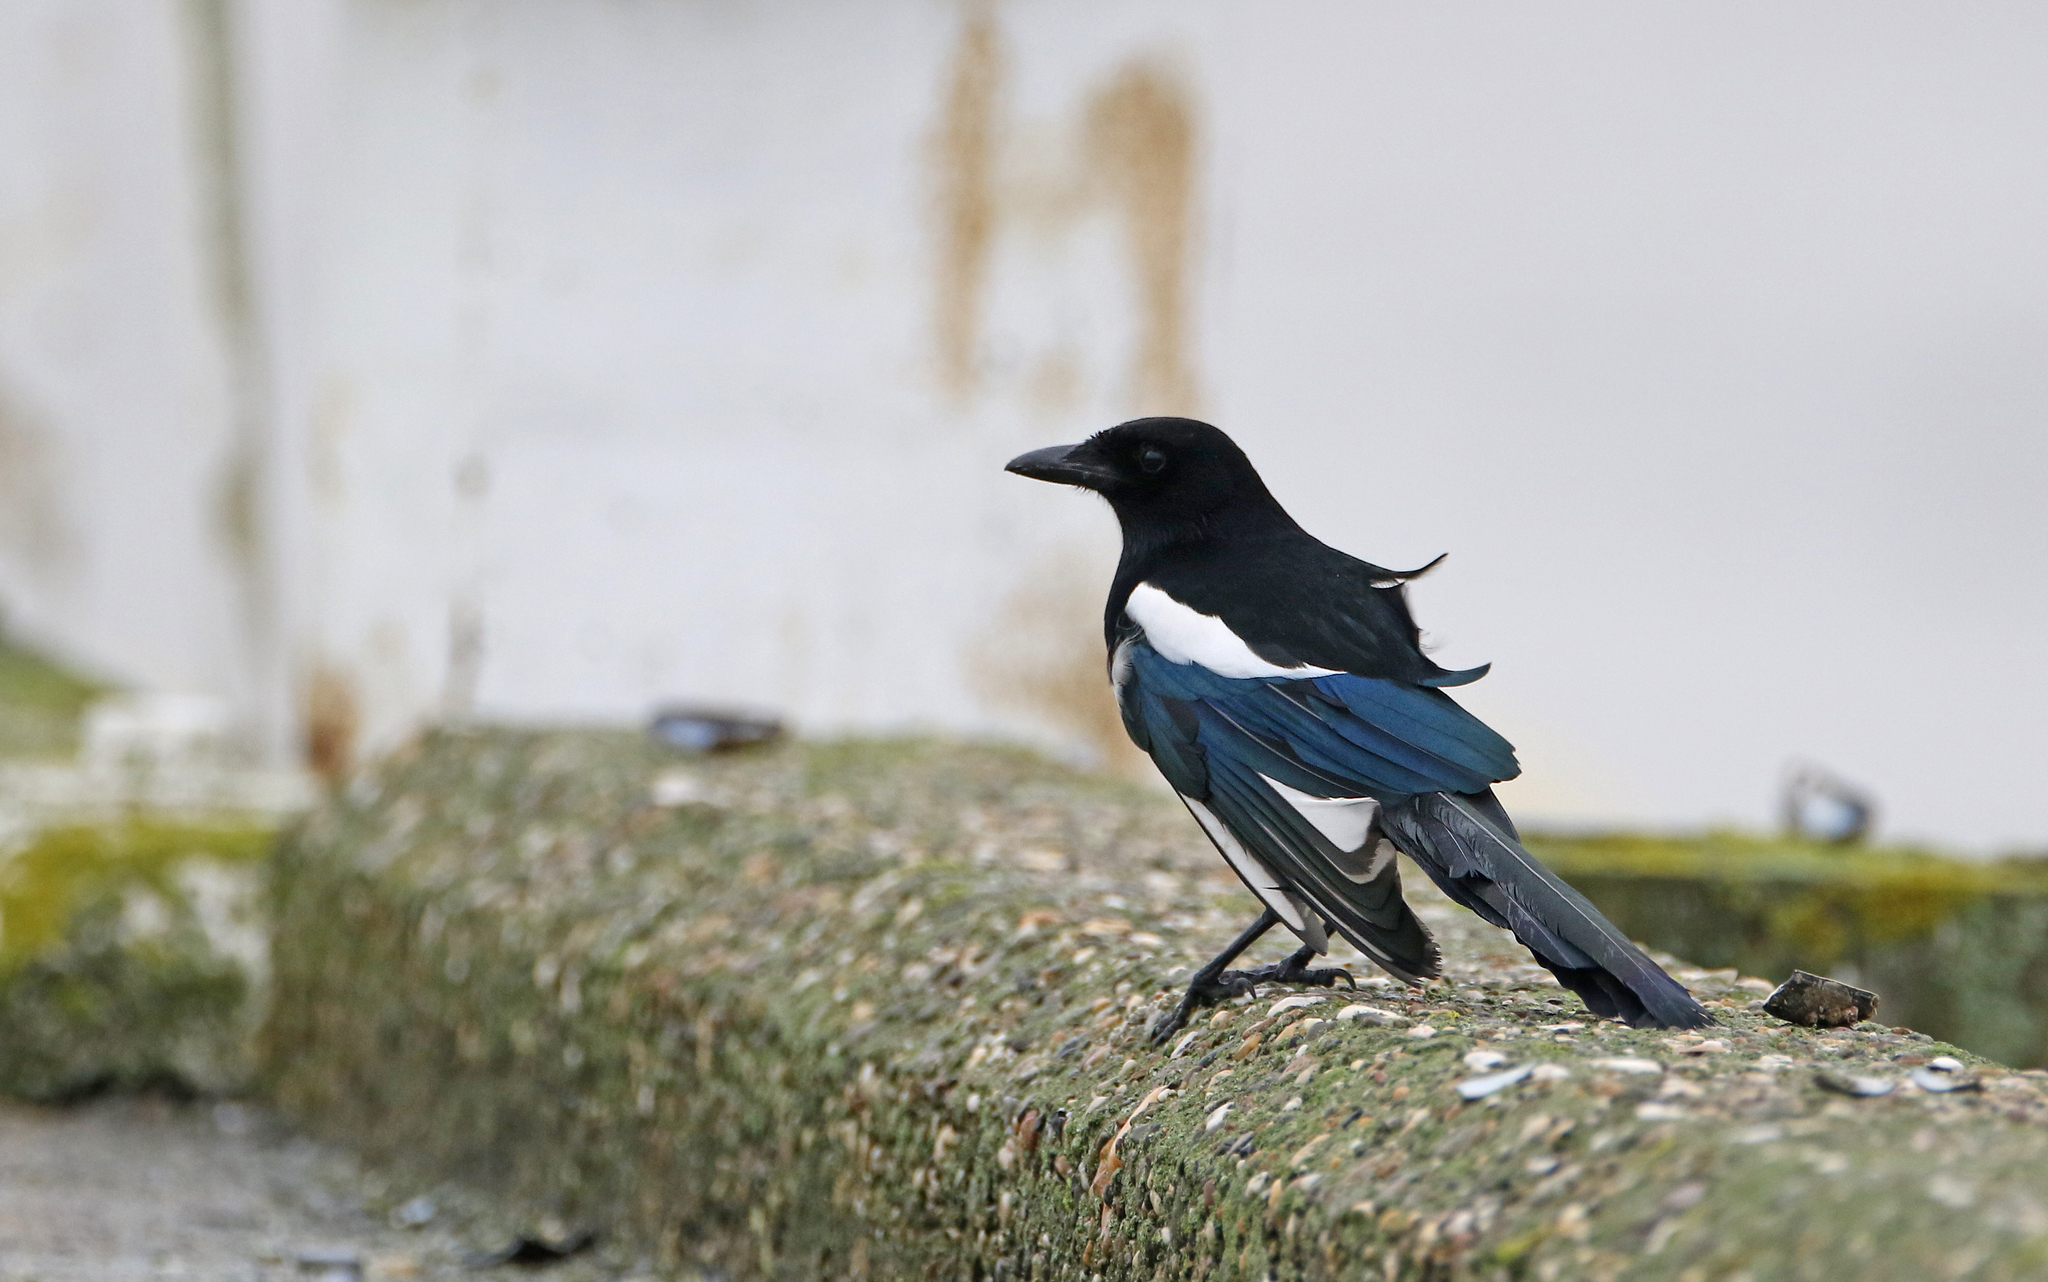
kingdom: Animalia
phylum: Chordata
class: Aves
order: Passeriformes
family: Corvidae
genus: Pica
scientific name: Pica pica
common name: Eurasian magpie
